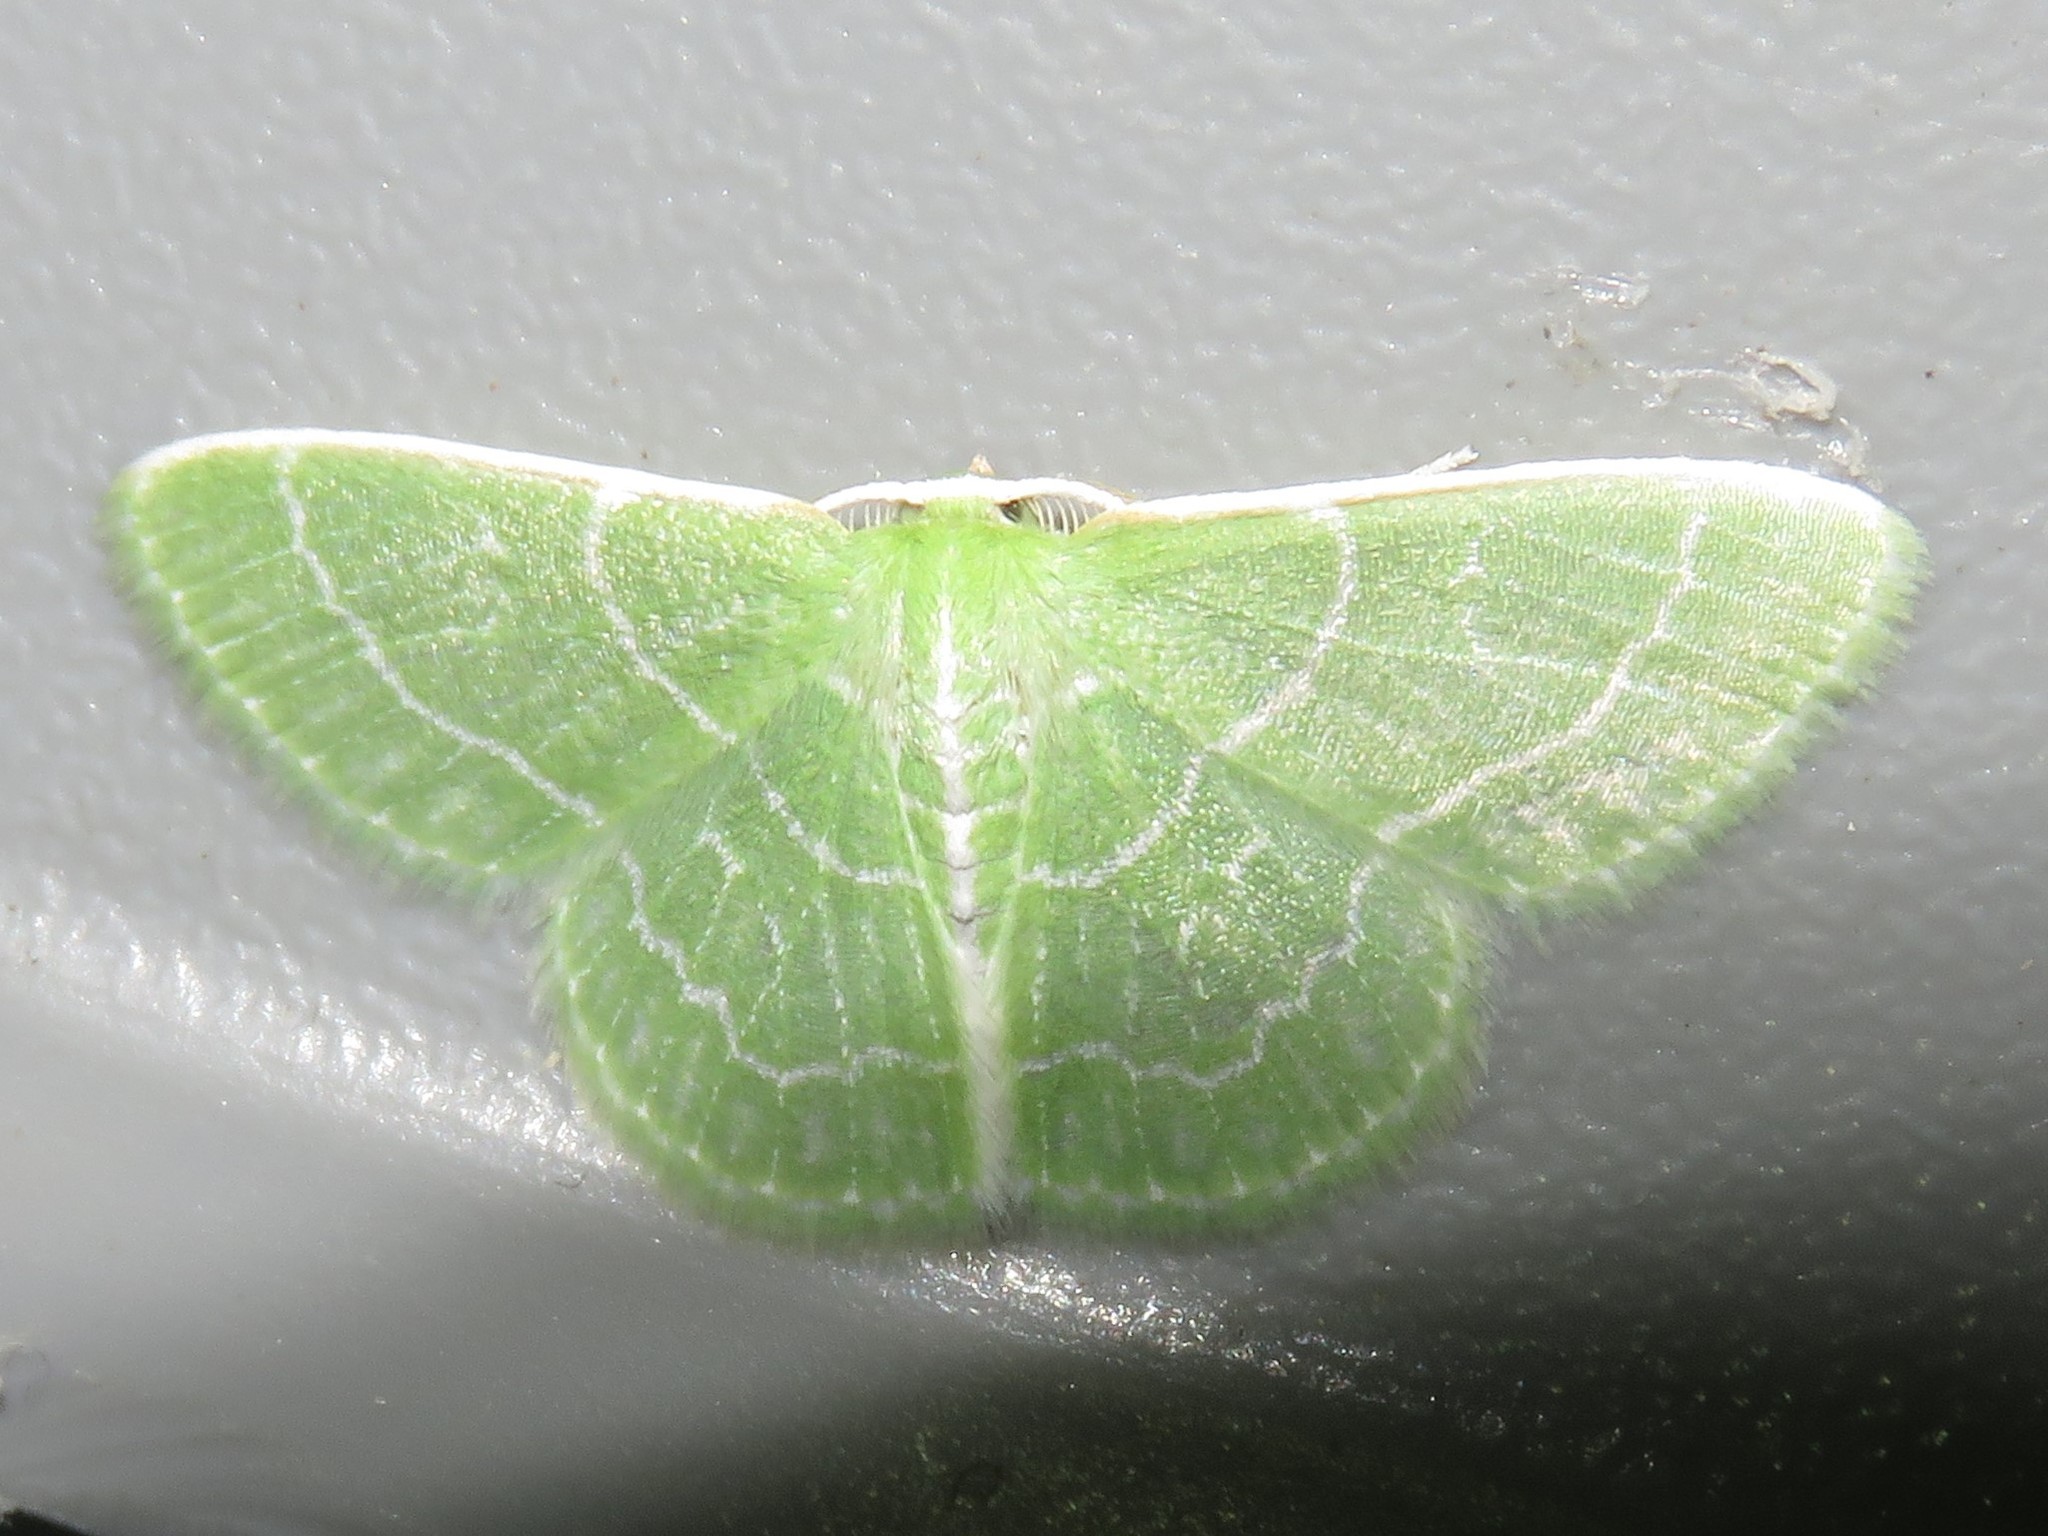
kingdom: Animalia
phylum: Arthropoda
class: Insecta
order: Lepidoptera
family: Geometridae
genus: Synchlora
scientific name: Synchlora aerata
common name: Wavy-lined emerald
